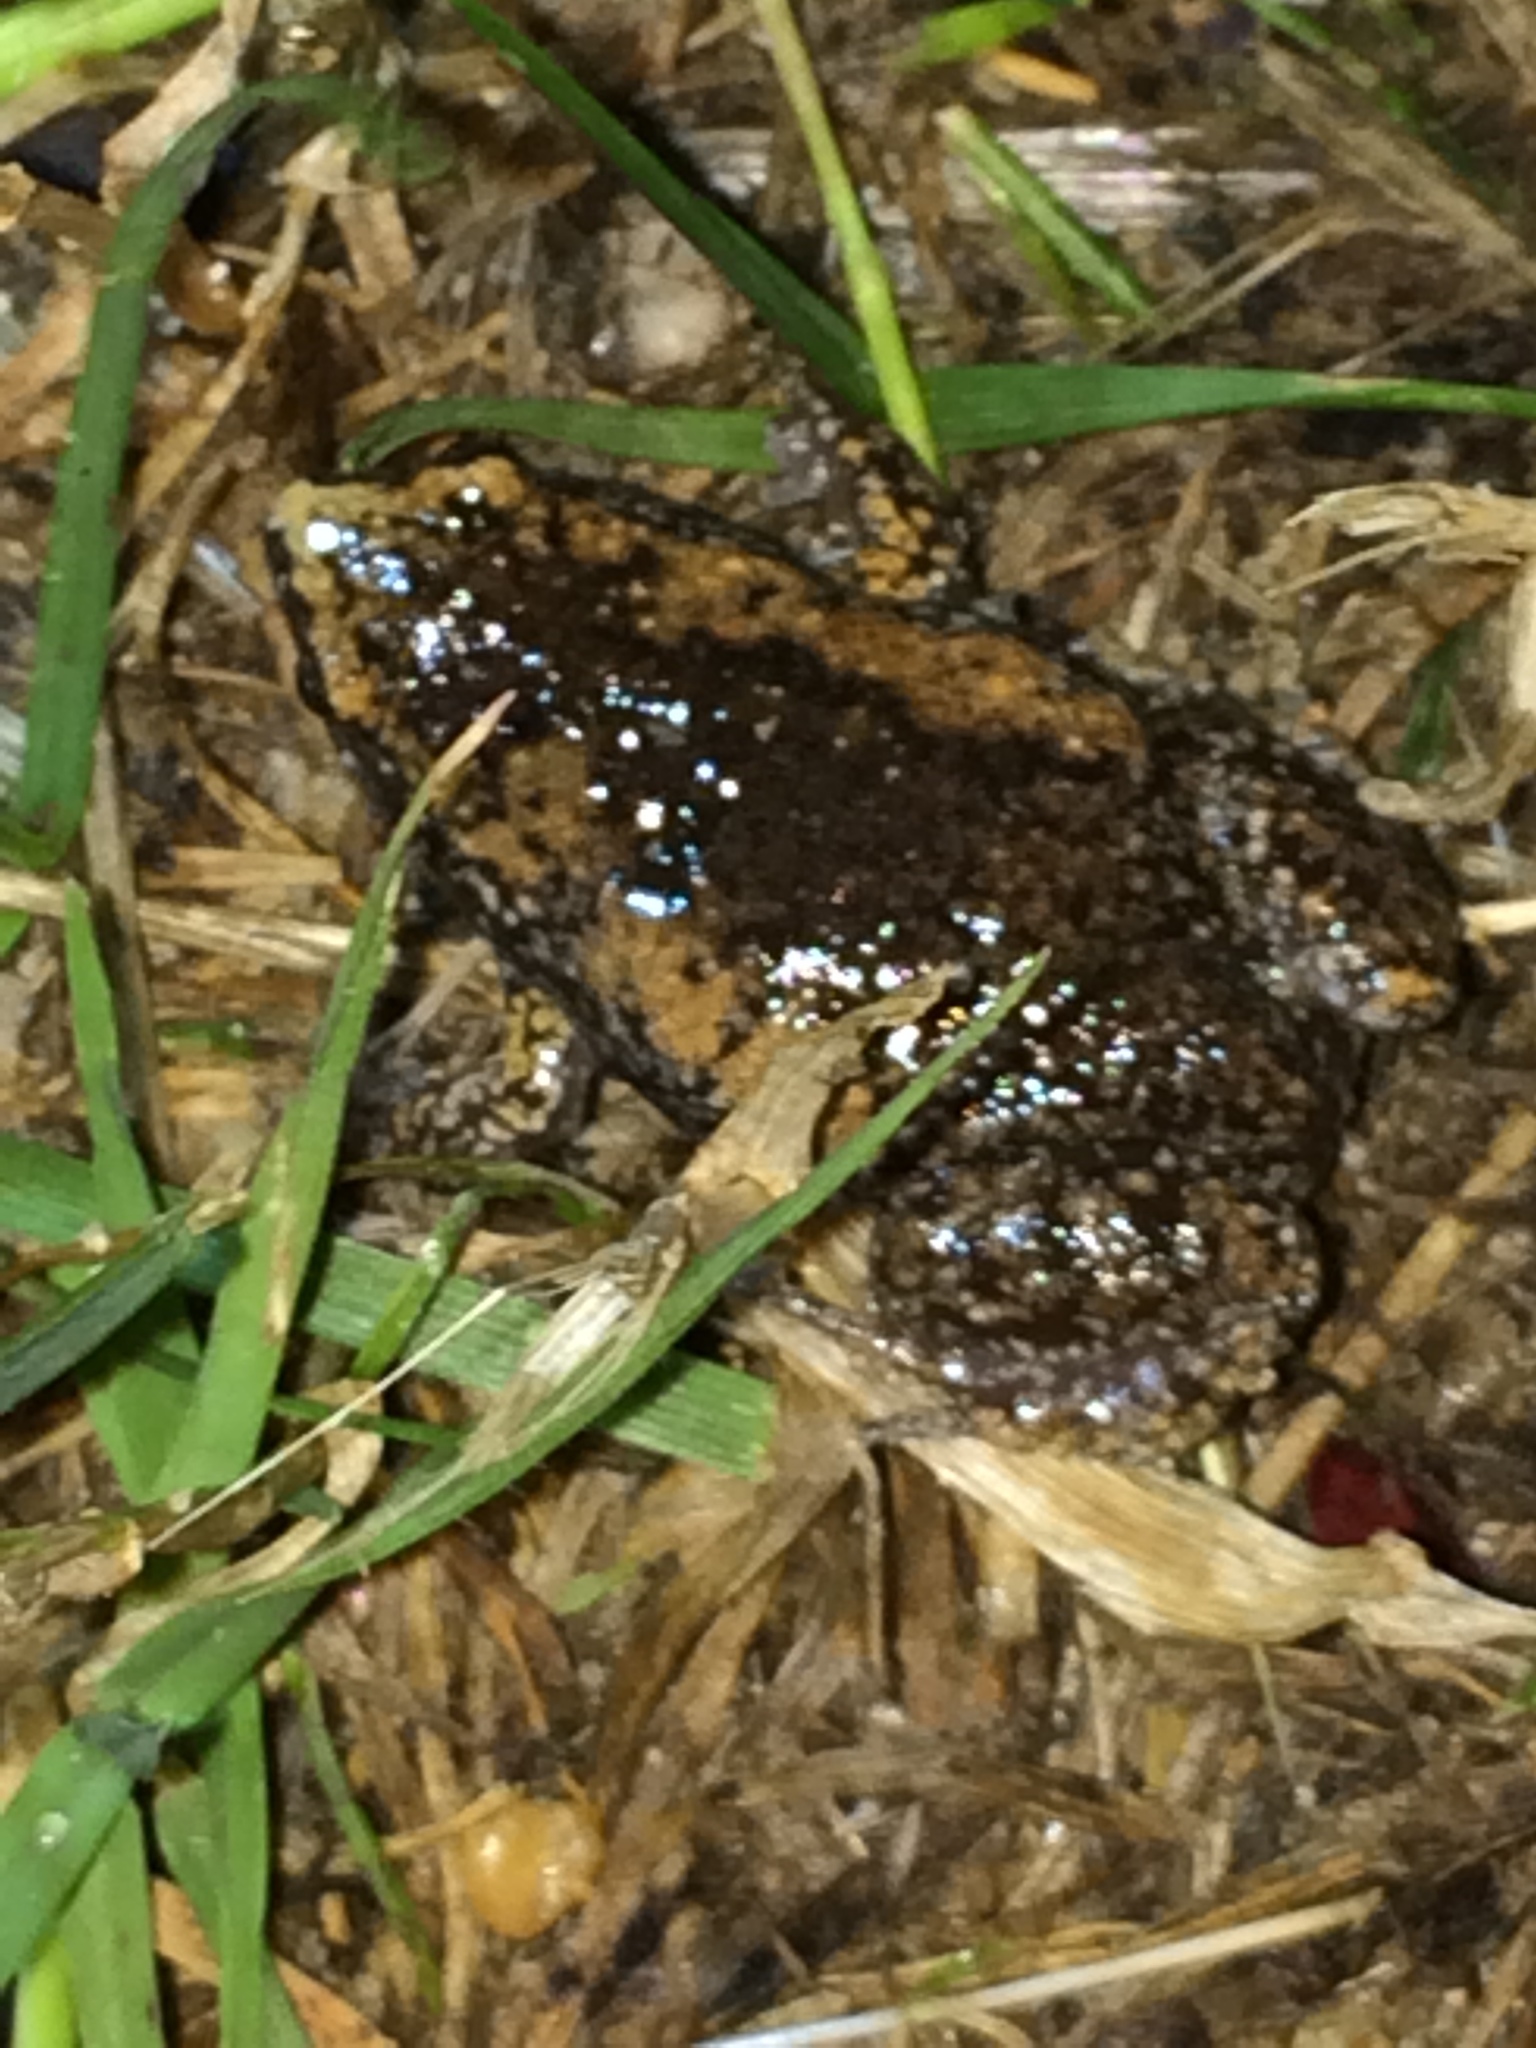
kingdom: Animalia
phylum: Chordata
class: Amphibia
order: Anura
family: Microhylidae
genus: Gastrophryne
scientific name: Gastrophryne carolinensis
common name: Eastern narrowmouth toad
